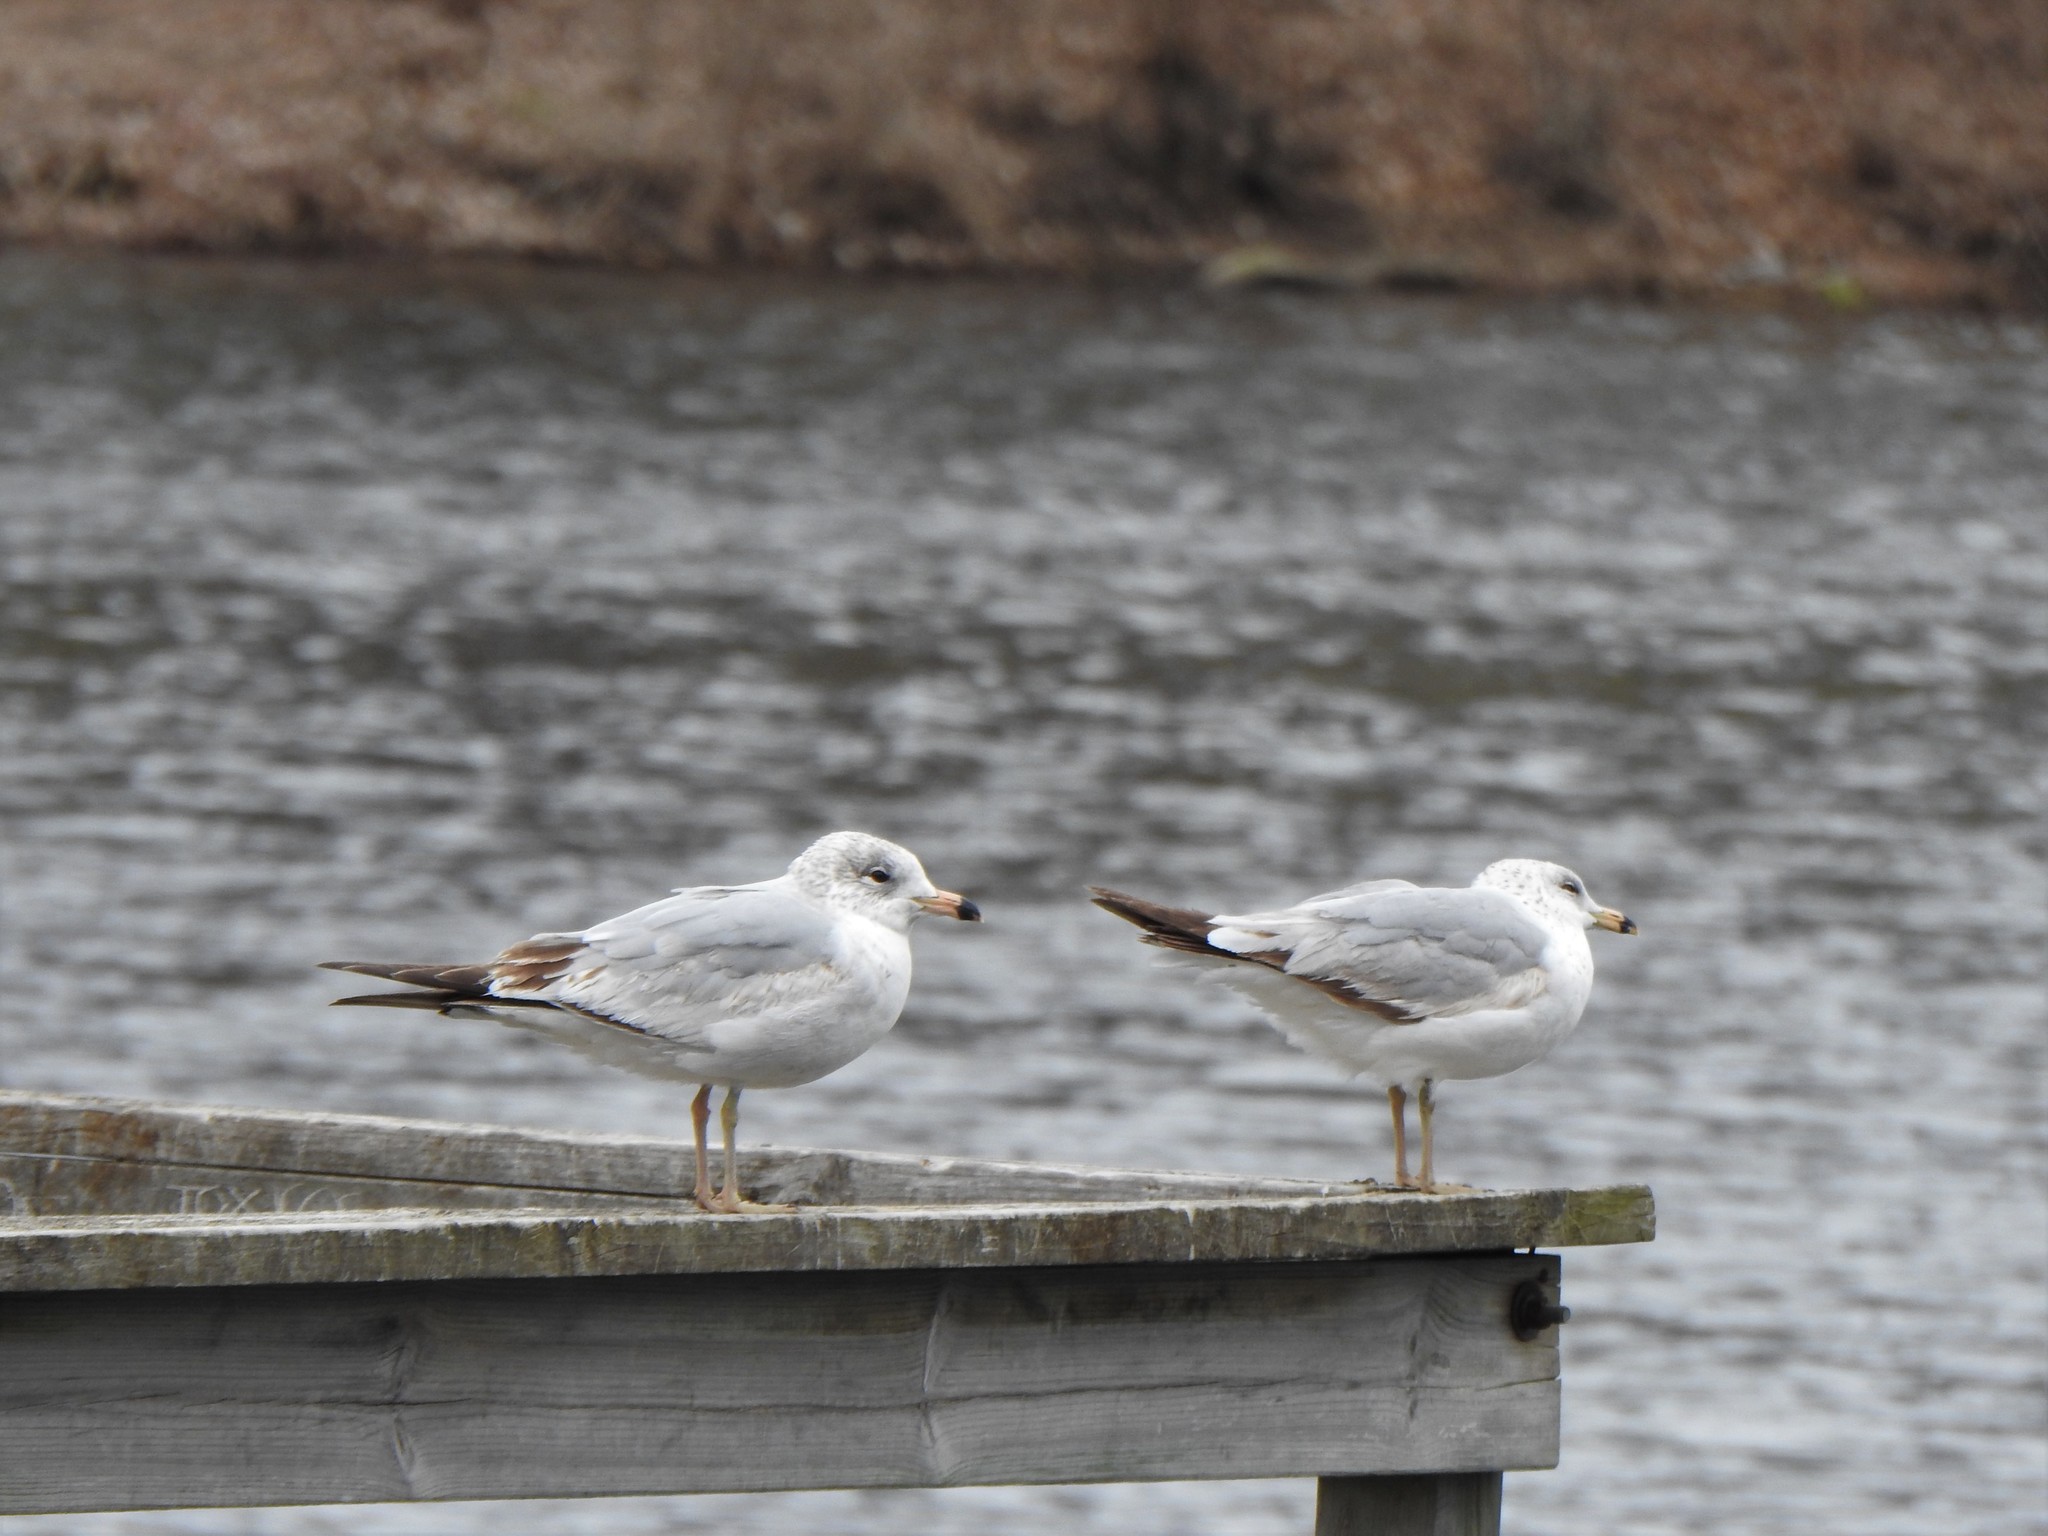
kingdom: Animalia
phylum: Chordata
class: Aves
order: Charadriiformes
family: Laridae
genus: Larus
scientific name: Larus delawarensis
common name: Ring-billed gull
